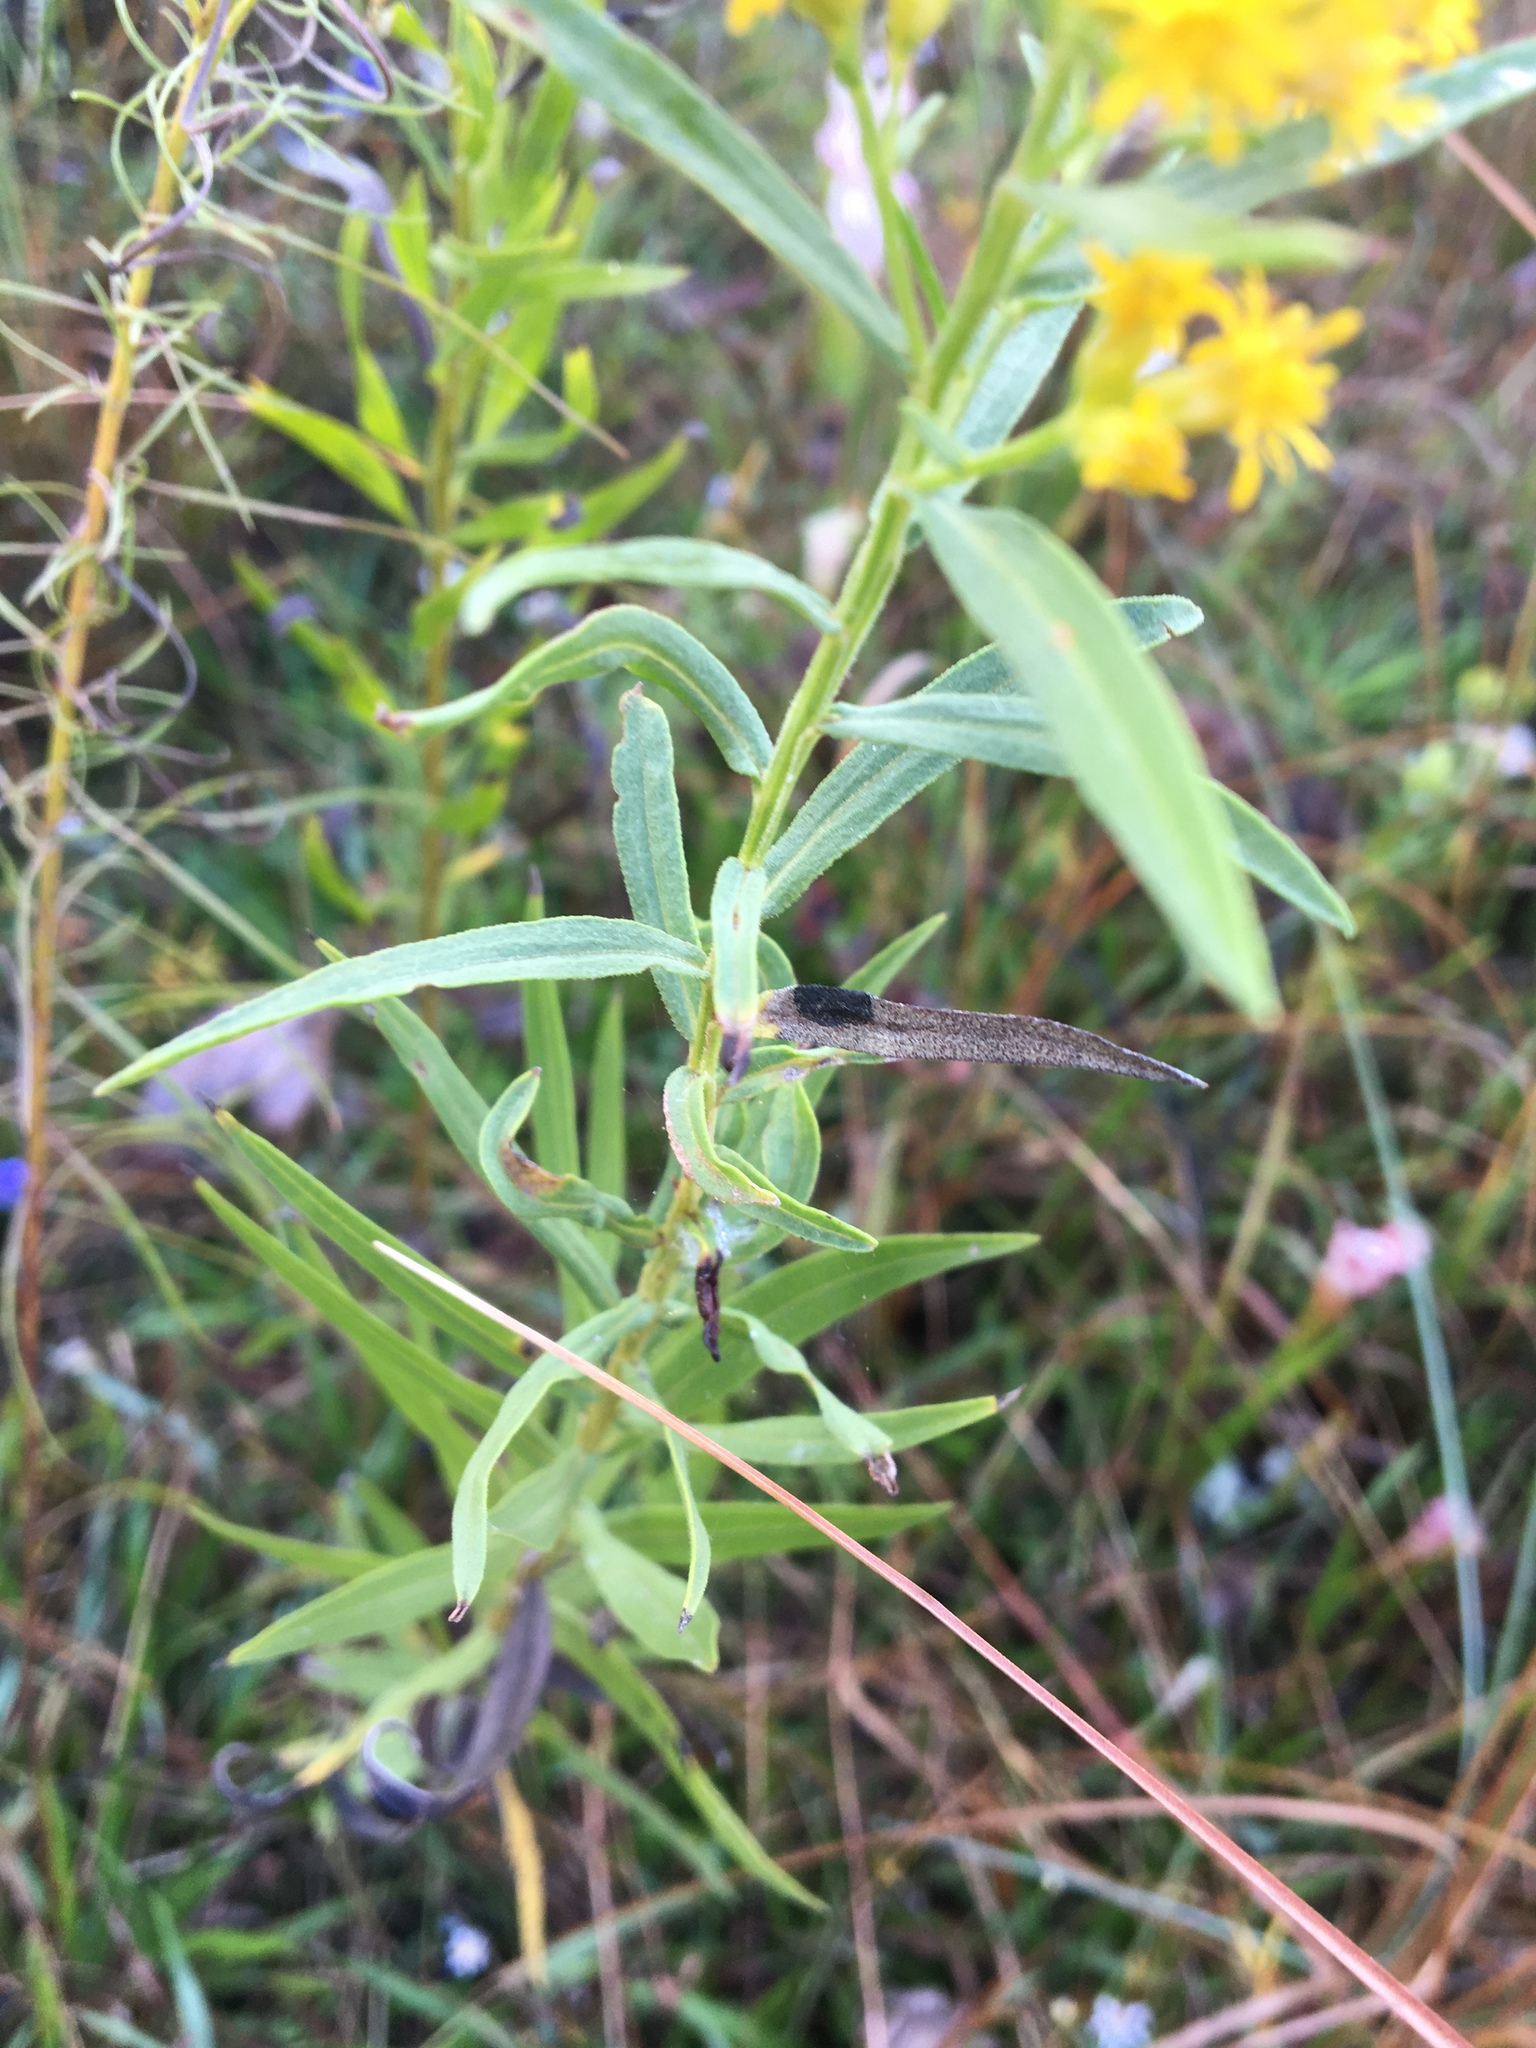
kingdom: Plantae
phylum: Tracheophyta
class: Magnoliopsida
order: Asterales
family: Asteraceae
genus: Euthamia
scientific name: Euthamia scabra
